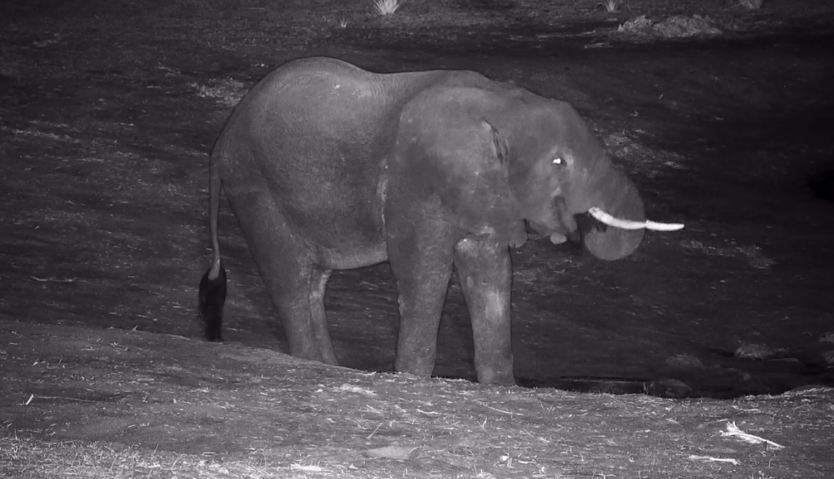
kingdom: Animalia
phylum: Chordata
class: Mammalia
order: Proboscidea
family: Elephantidae
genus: Loxodonta
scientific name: Loxodonta africana
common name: African elephant
